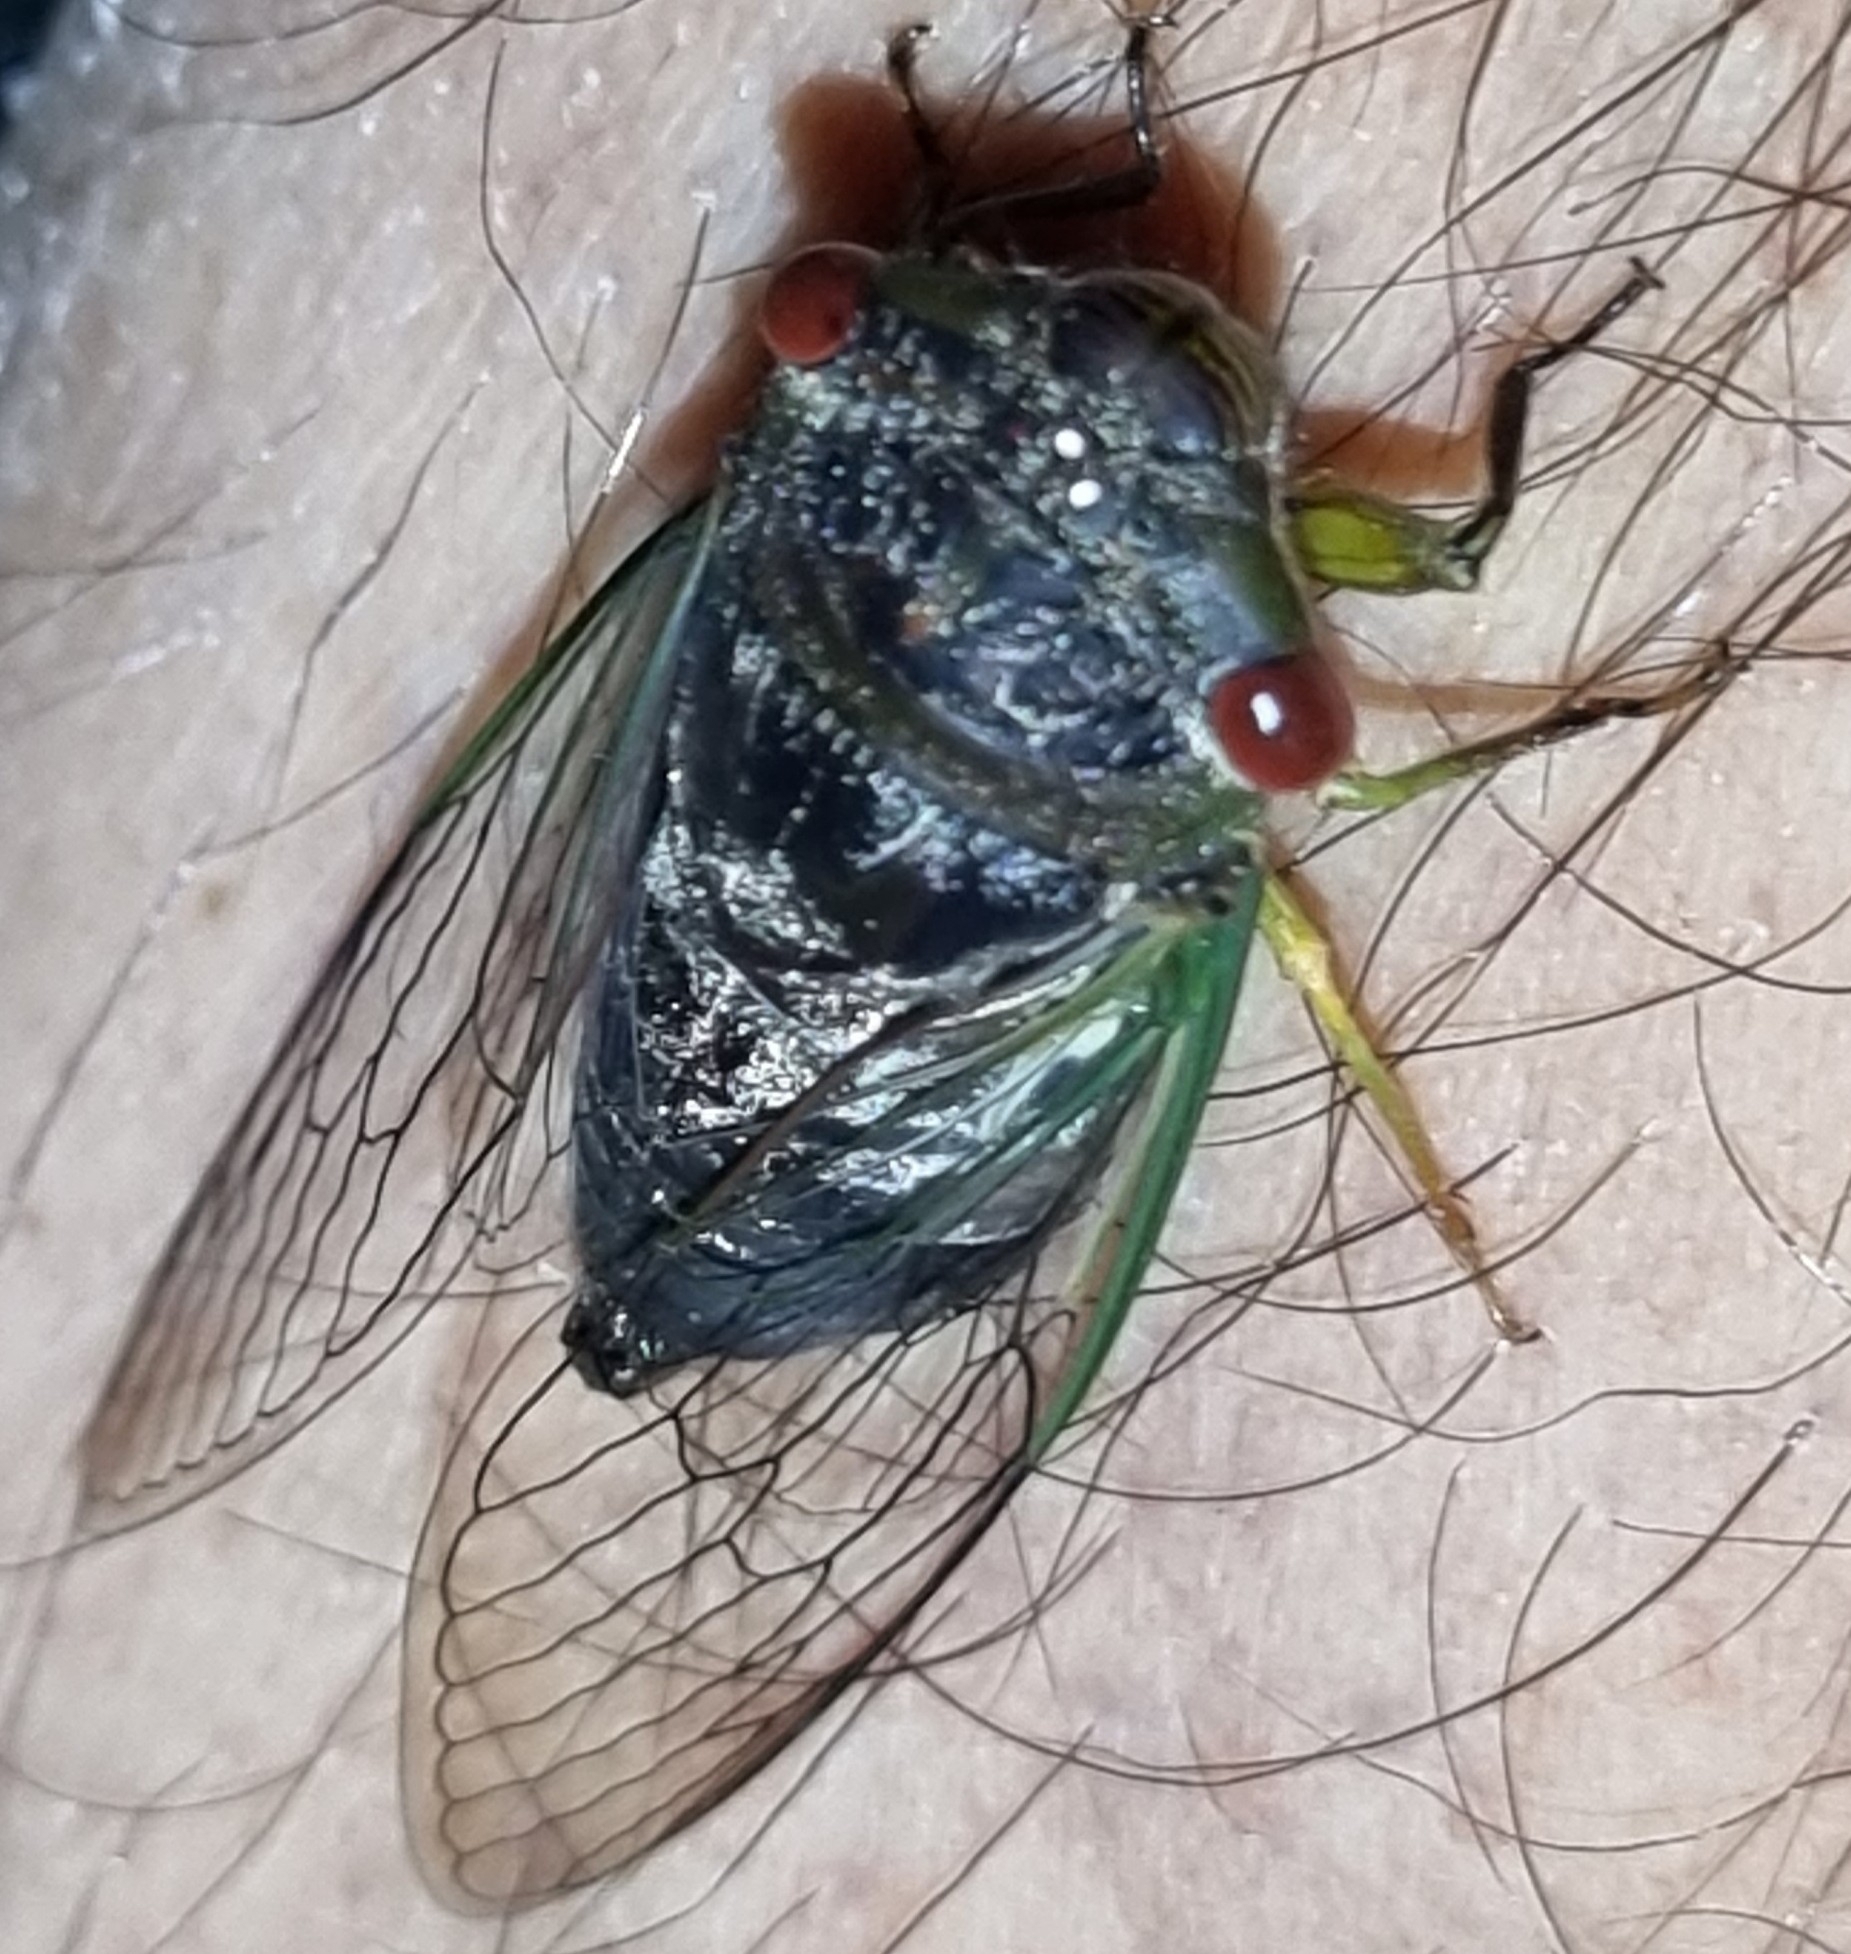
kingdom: Animalia
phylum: Arthropoda
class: Insecta
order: Hemiptera
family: Cicadidae
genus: Psaltoda
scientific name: Psaltoda claripennis
